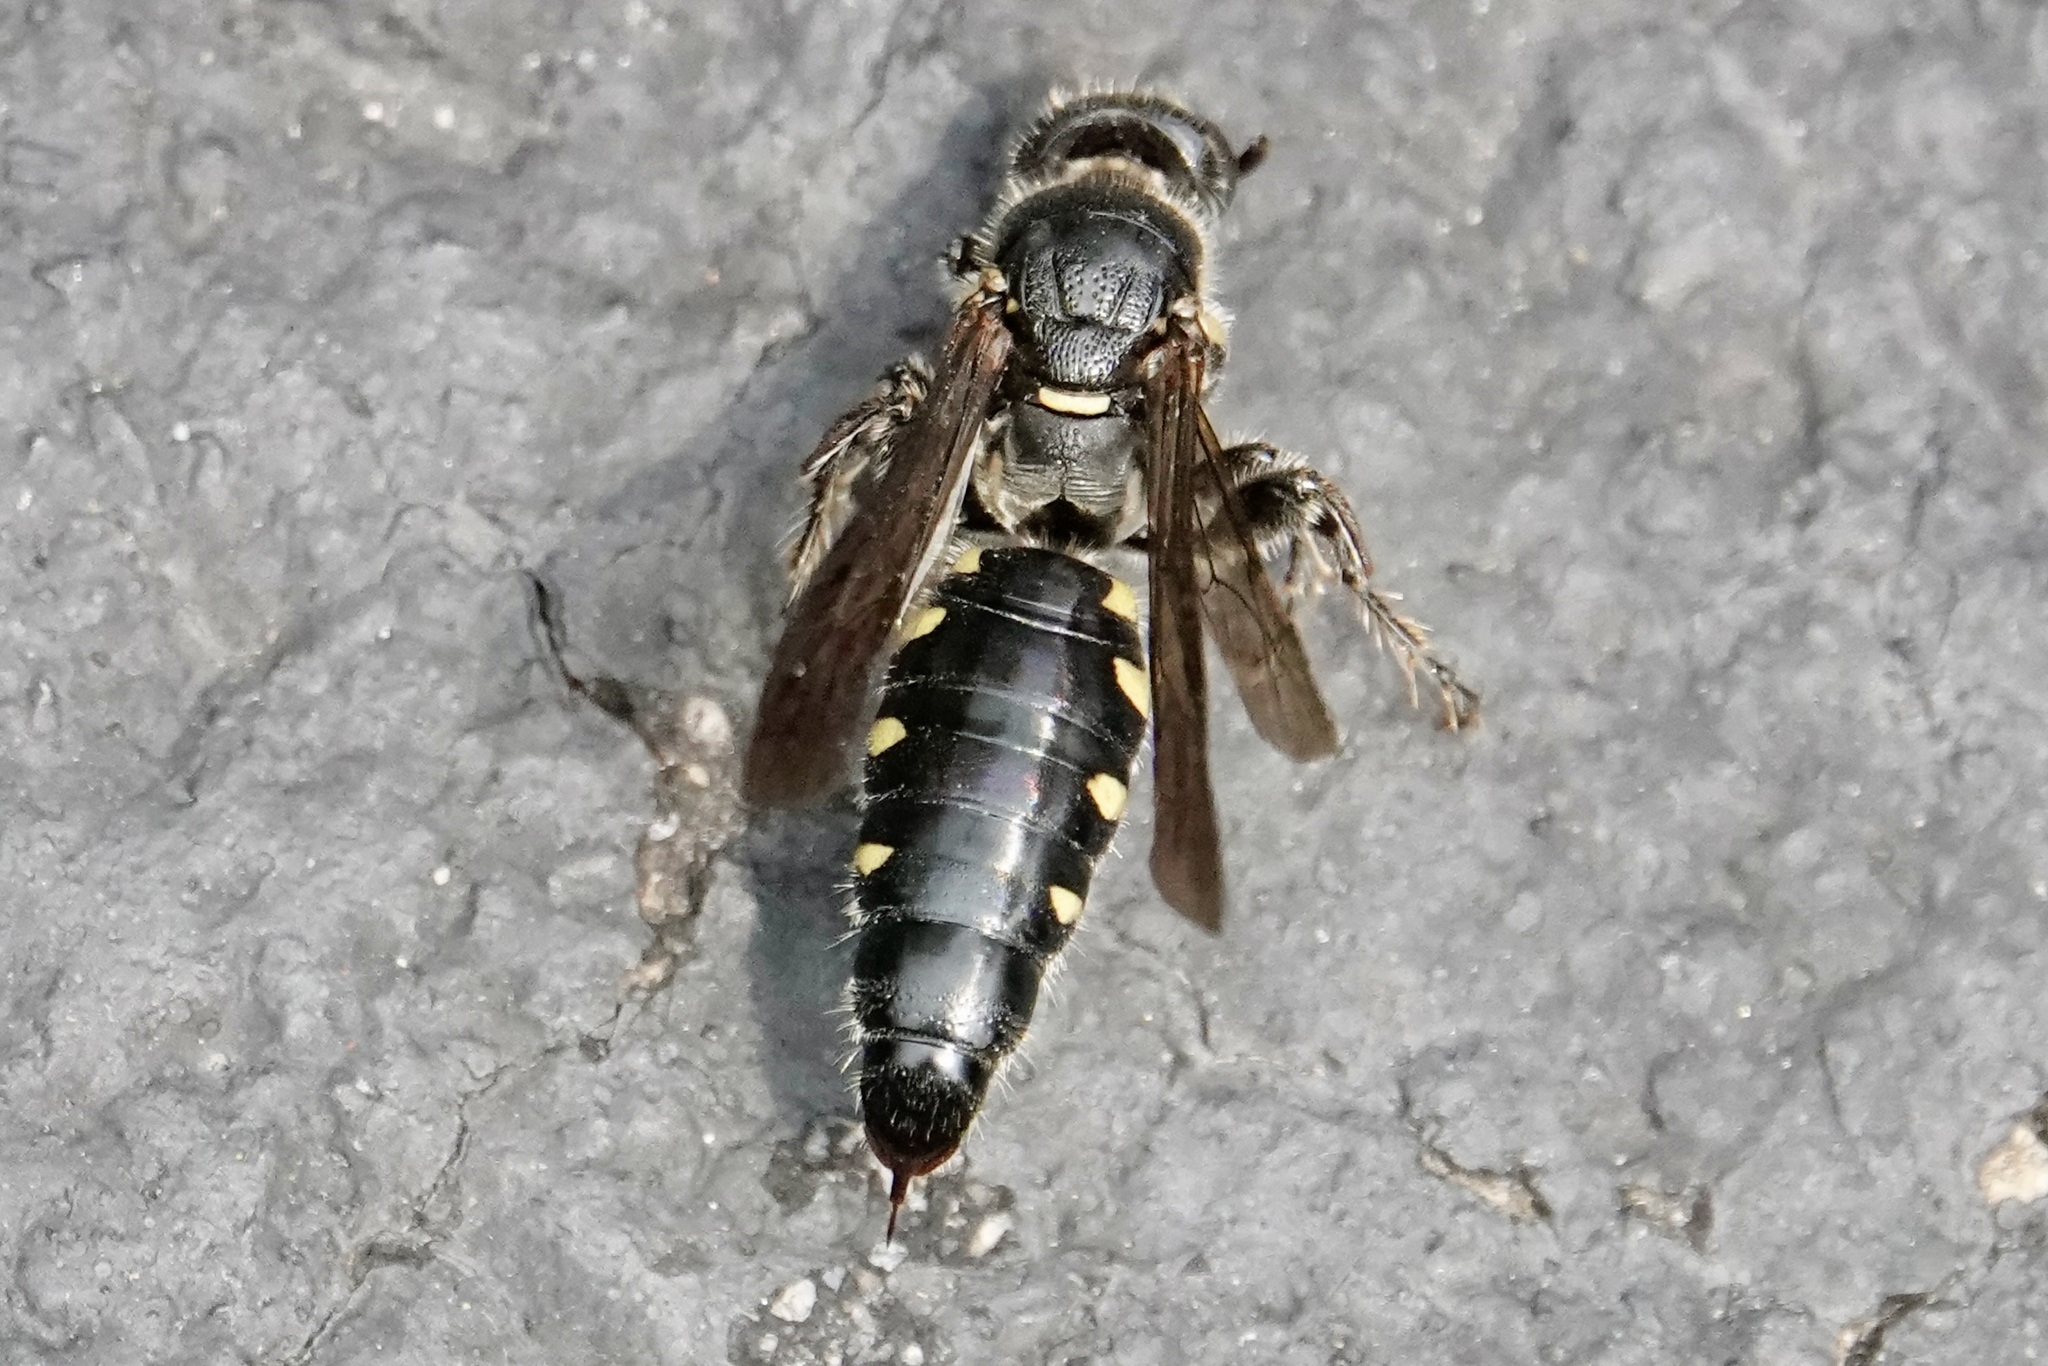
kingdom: Animalia
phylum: Arthropoda
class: Insecta
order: Hymenoptera
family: Tiphiidae
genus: Myzinum
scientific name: Myzinum obscurum
